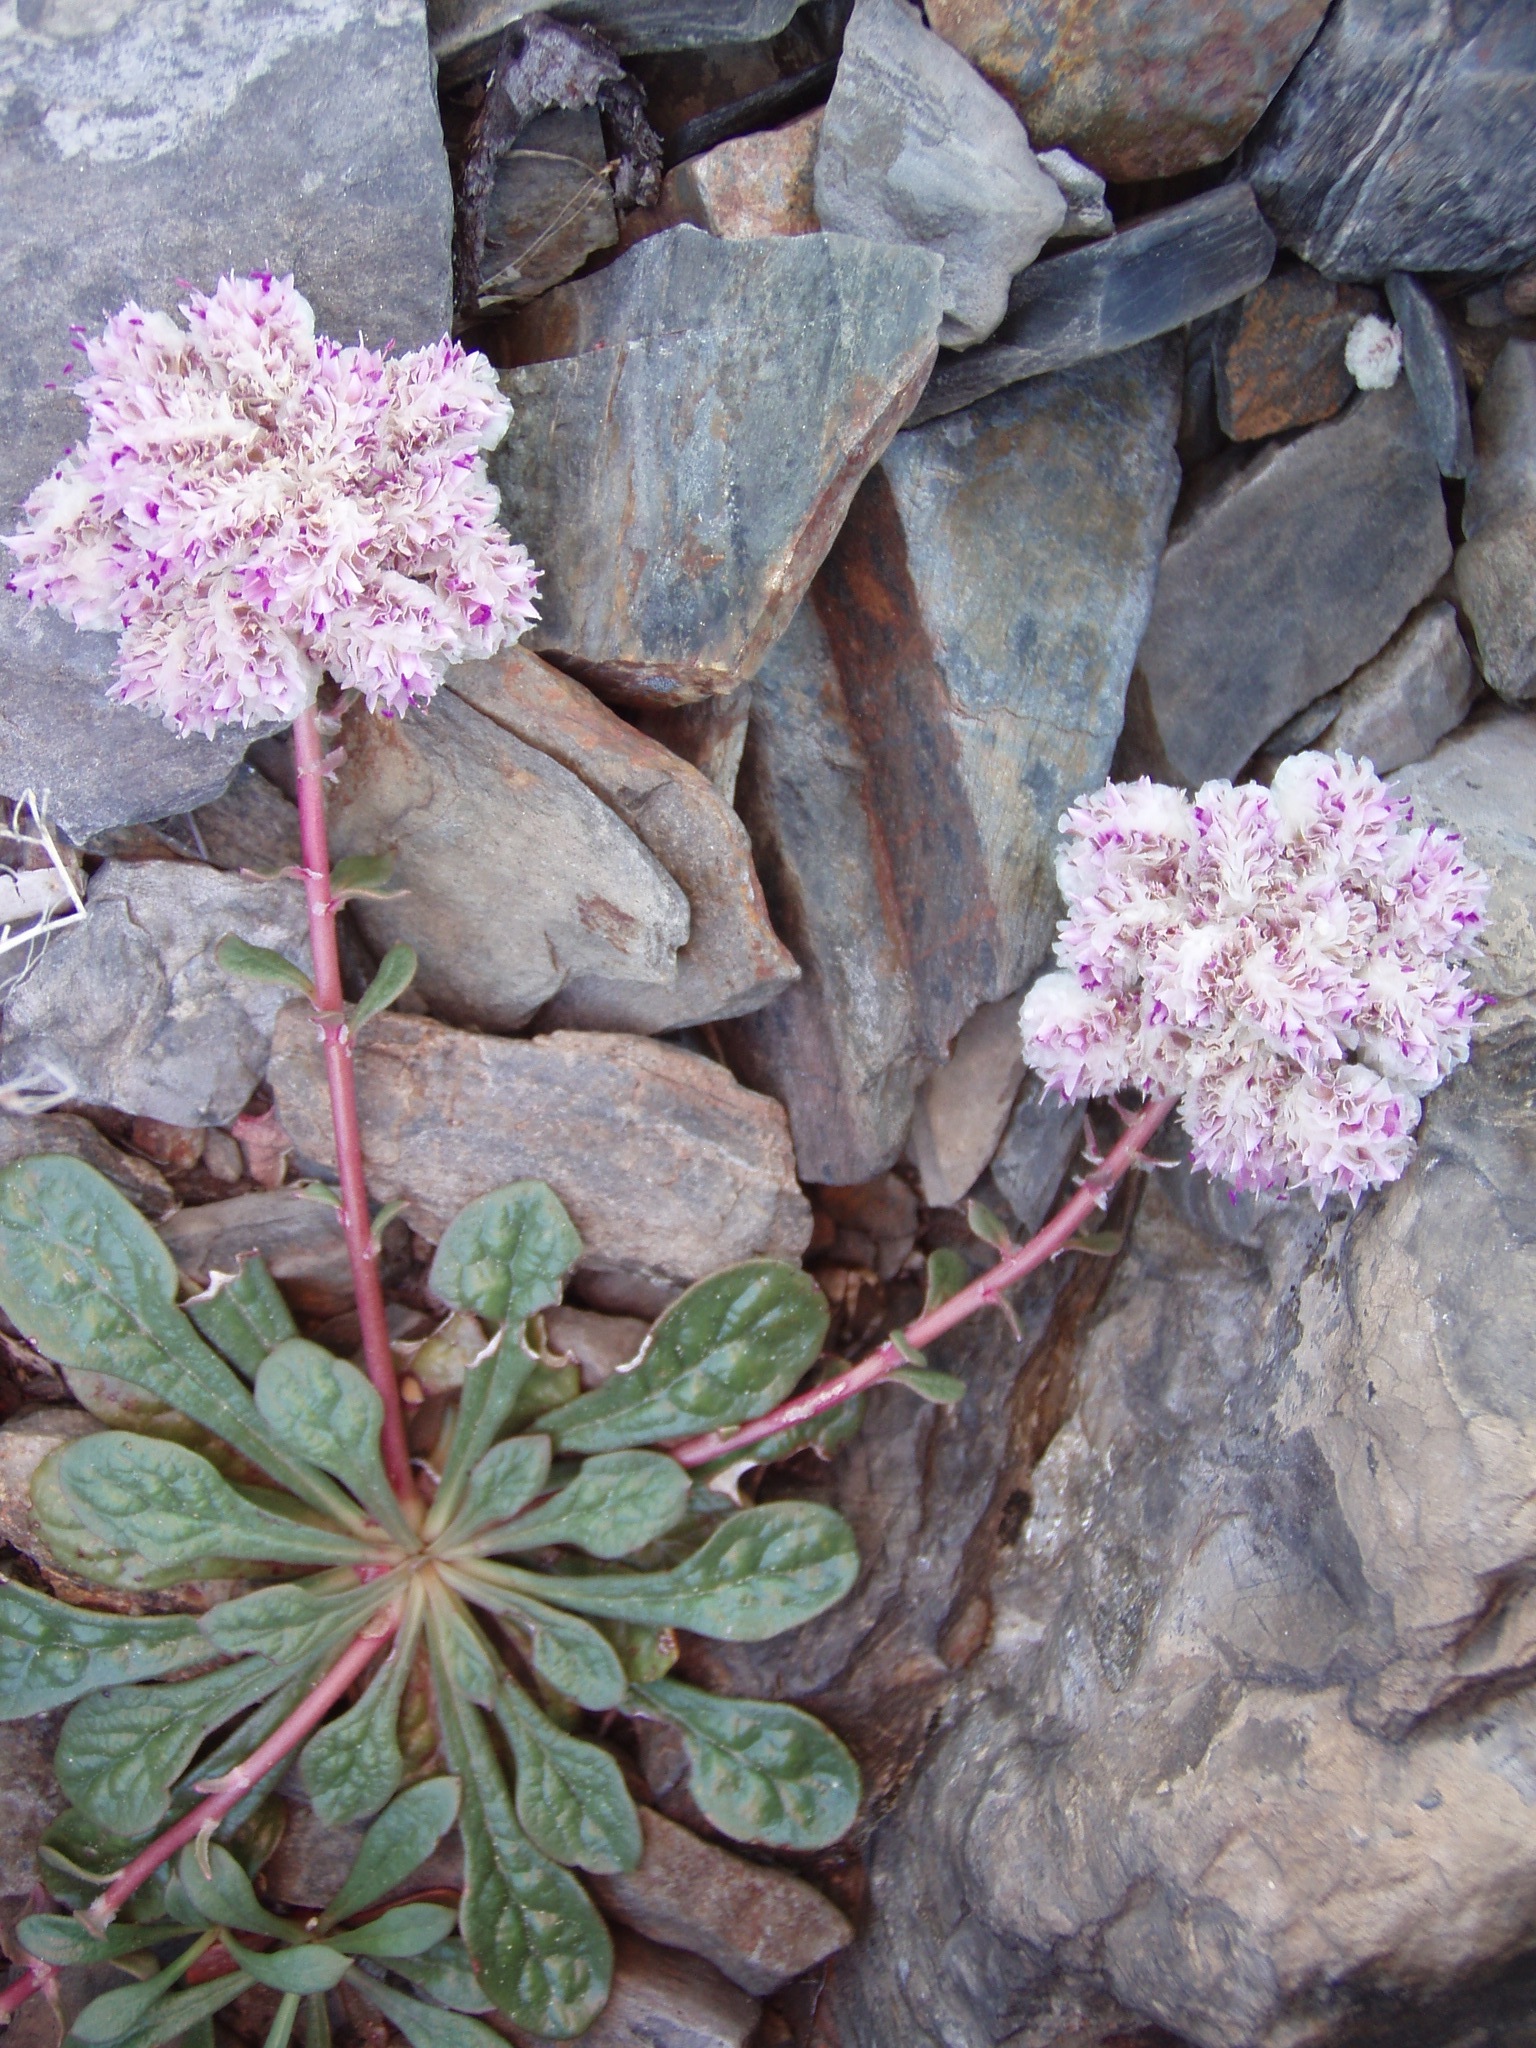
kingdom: Plantae
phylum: Tracheophyta
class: Magnoliopsida
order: Caryophyllales
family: Montiaceae
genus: Calyptridium
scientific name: Calyptridium monospermum
